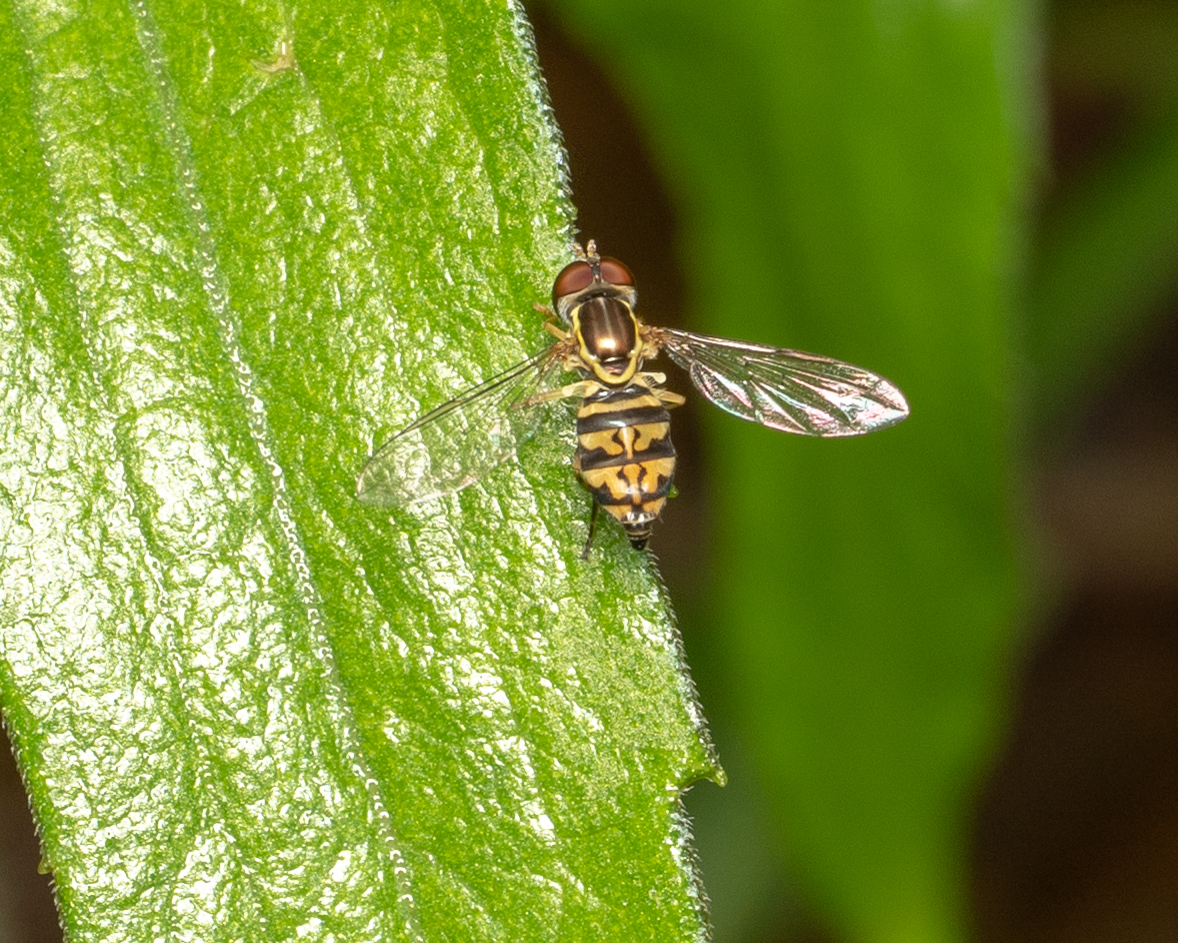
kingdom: Animalia
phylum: Arthropoda
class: Insecta
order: Diptera
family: Syrphidae
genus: Toxomerus
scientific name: Toxomerus geminatus
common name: Eastern calligrapher
